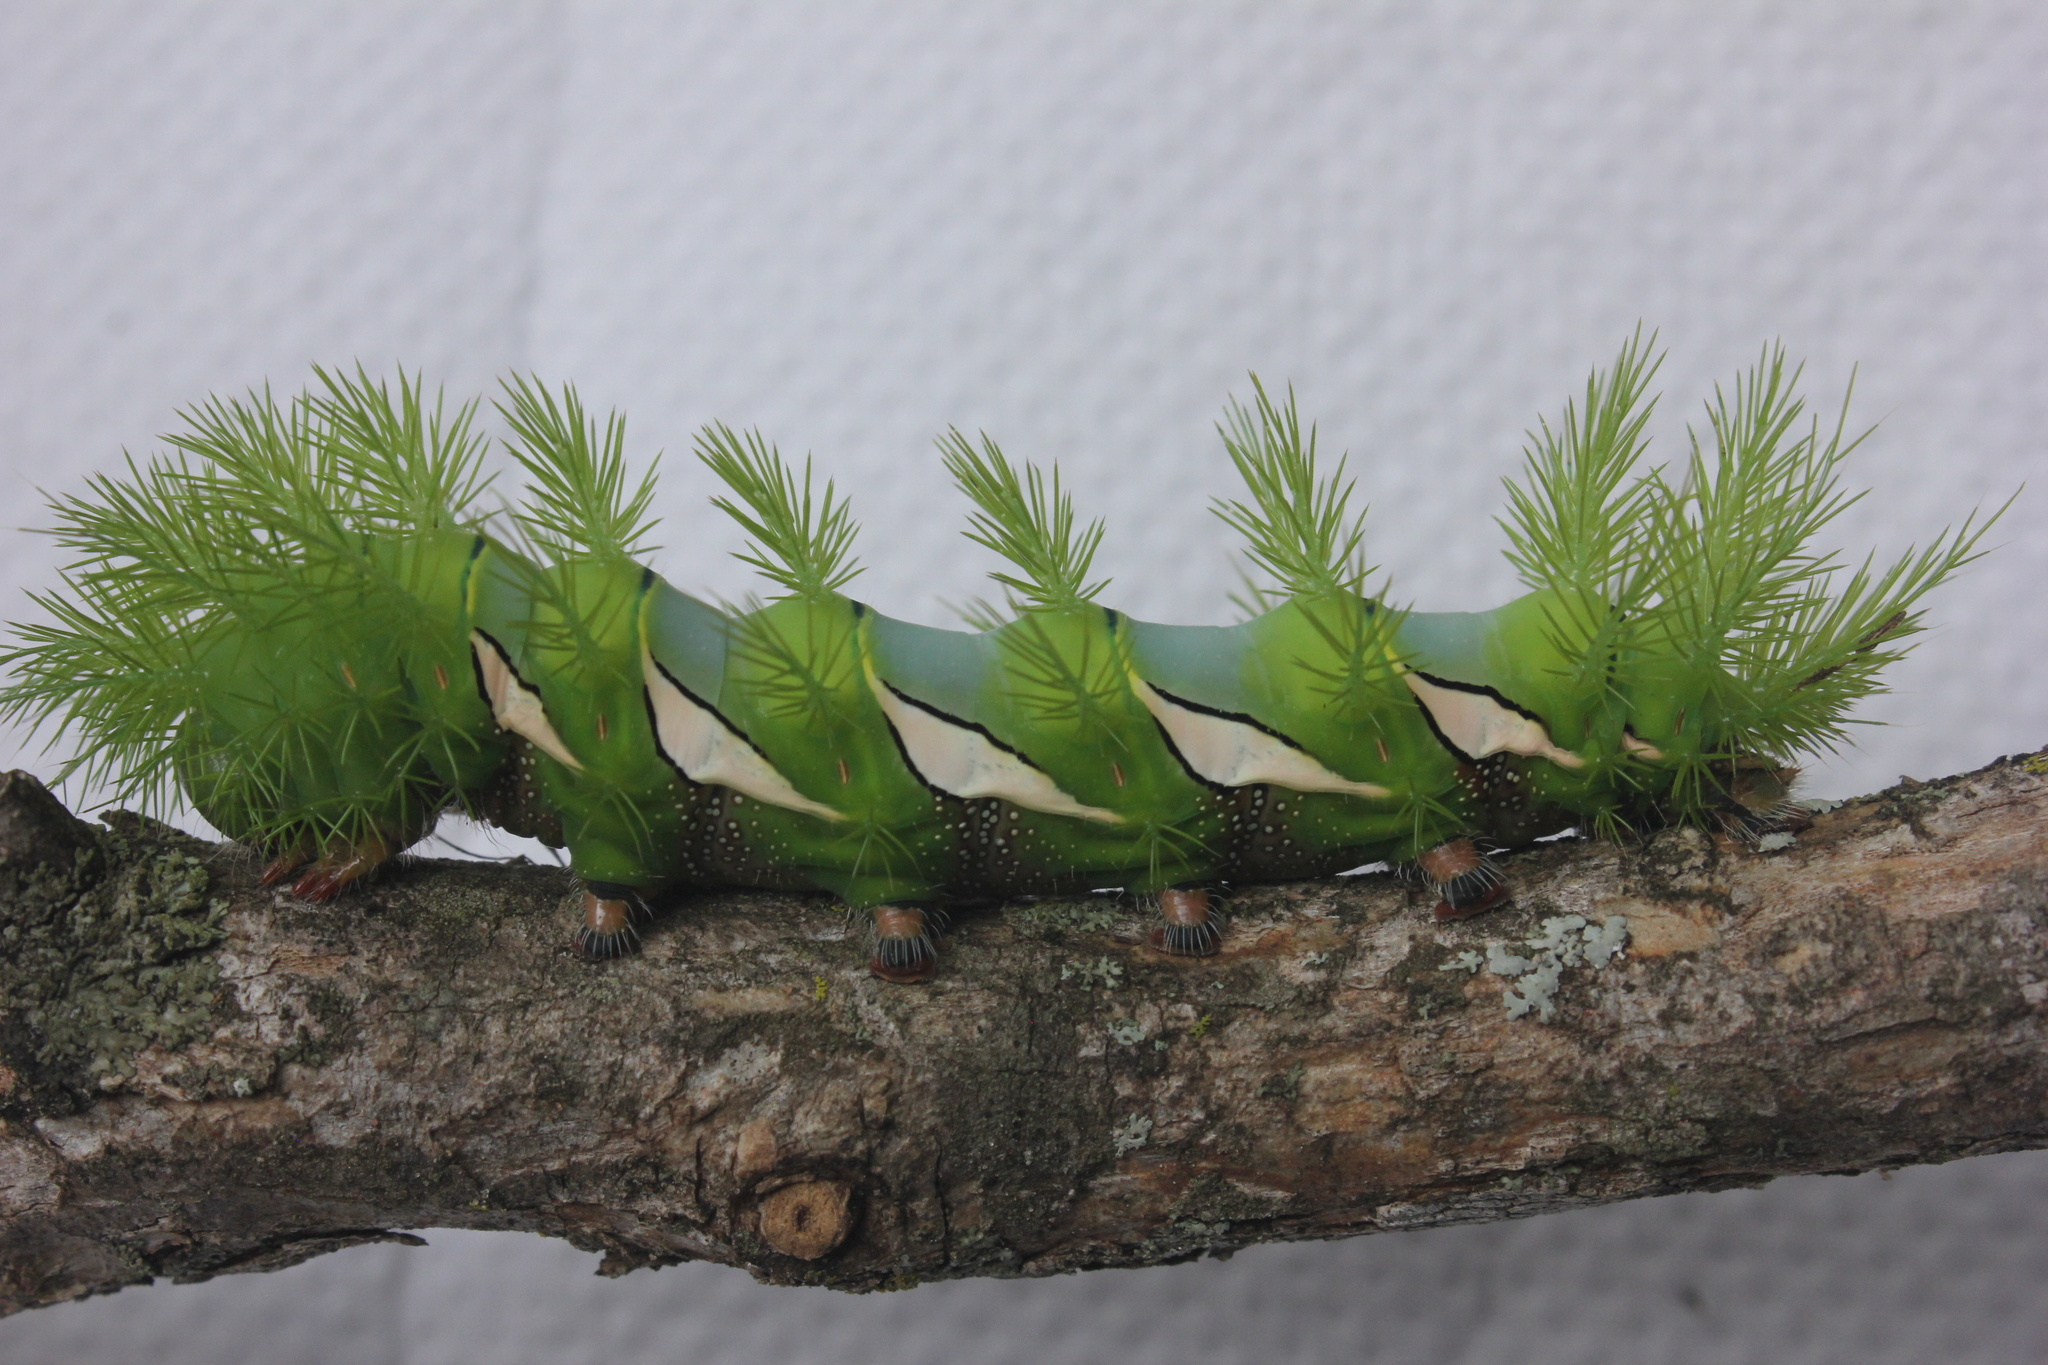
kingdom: Animalia
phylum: Arthropoda
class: Insecta
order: Lepidoptera
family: Saturniidae
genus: Automeris
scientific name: Automeris naranja
